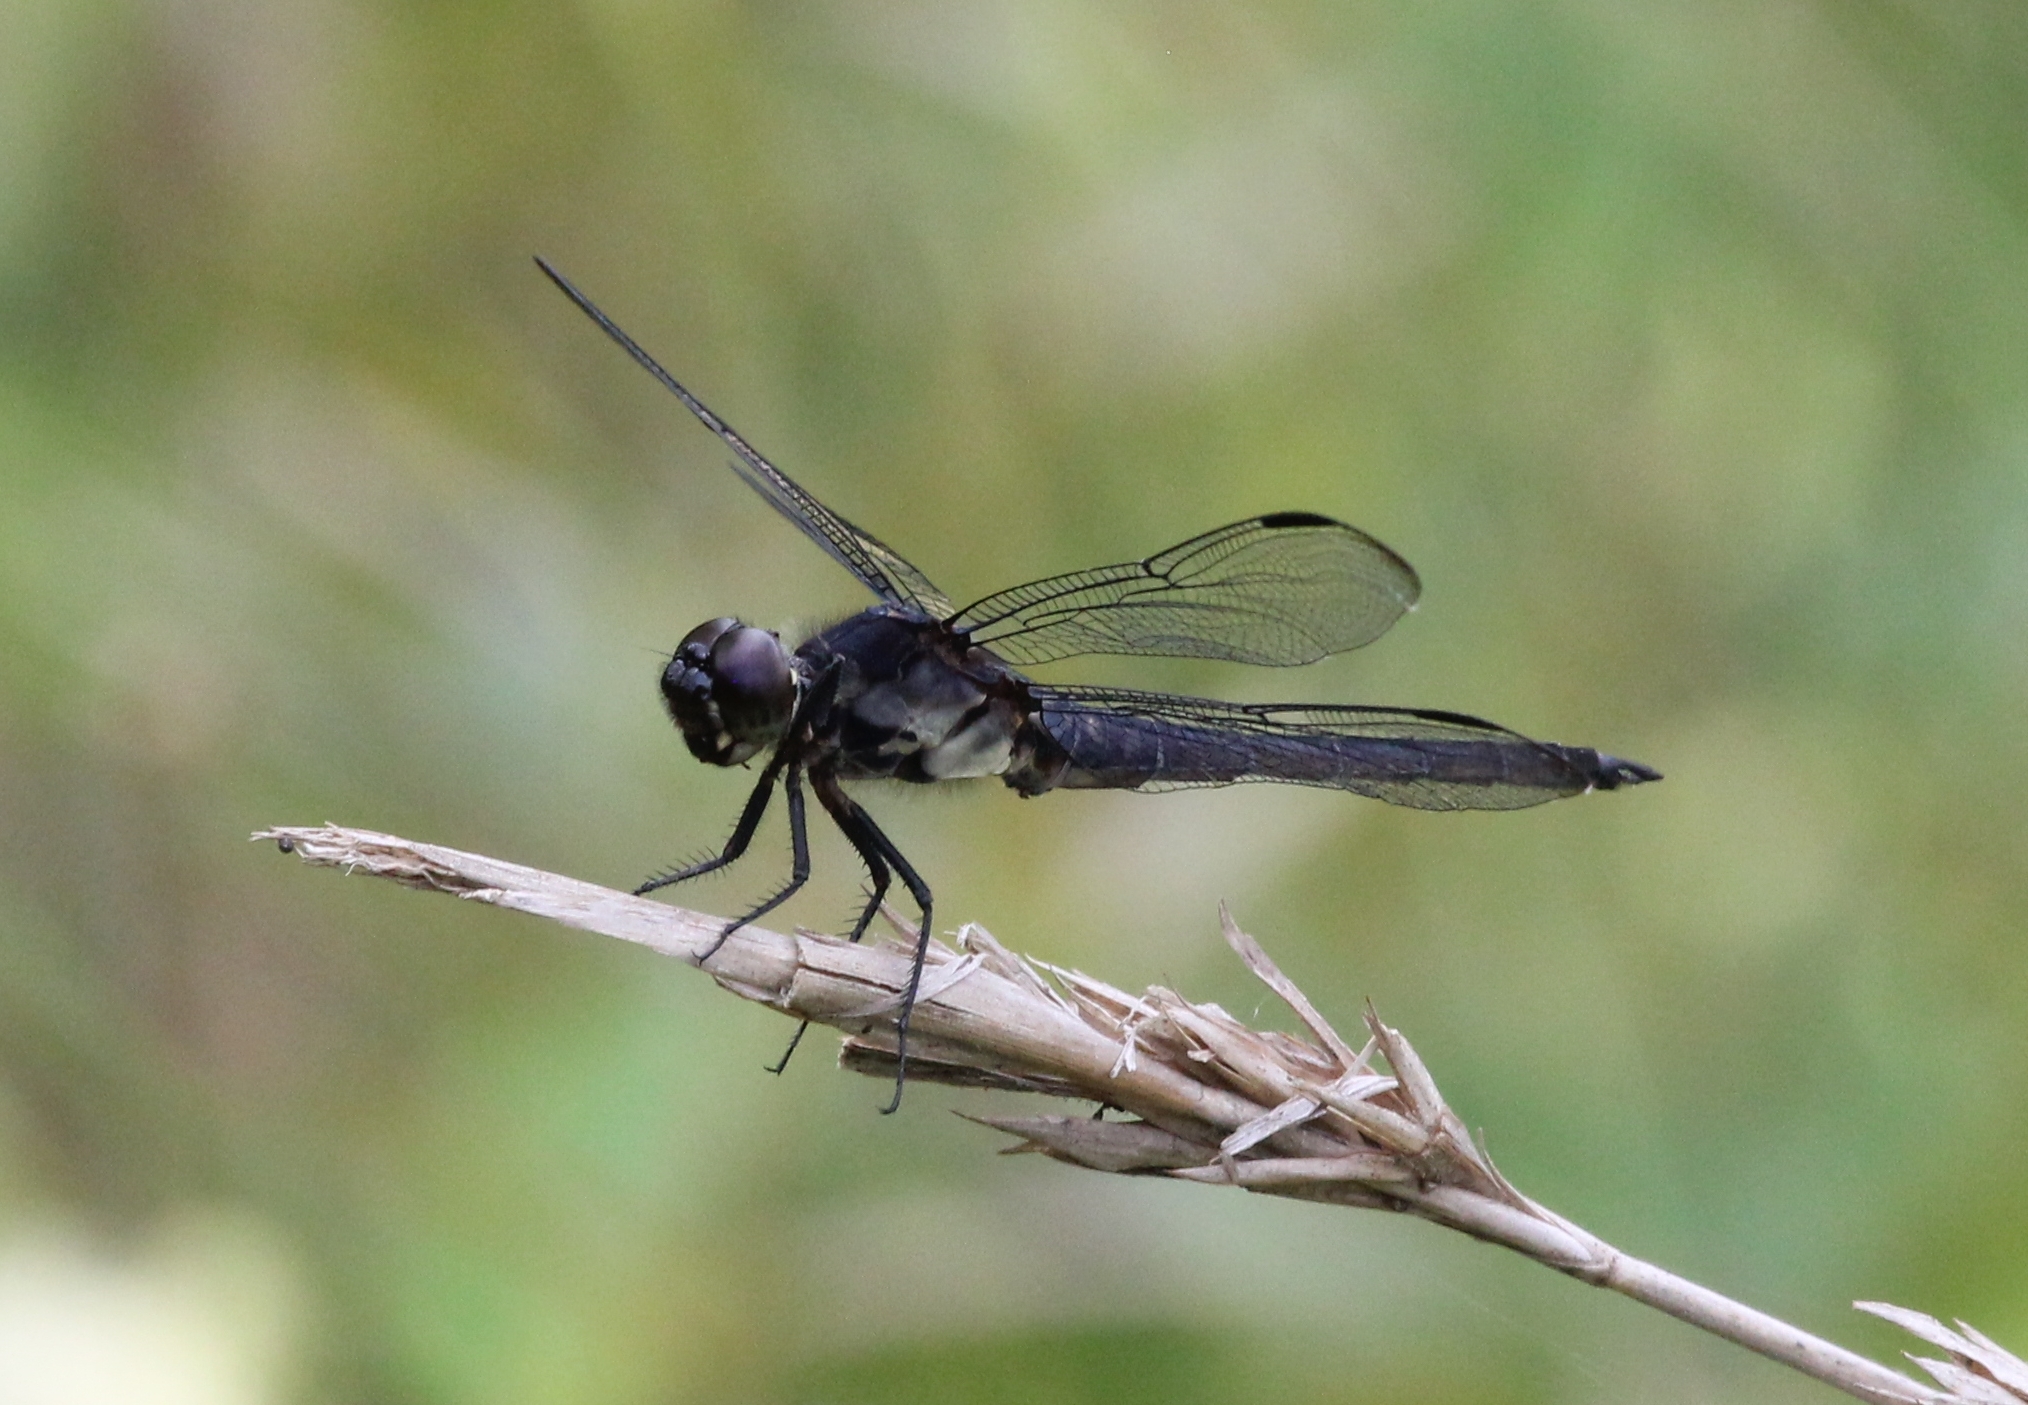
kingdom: Animalia
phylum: Arthropoda
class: Insecta
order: Odonata
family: Libellulidae
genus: Libellula
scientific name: Libellula incesta
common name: Slaty skimmer
